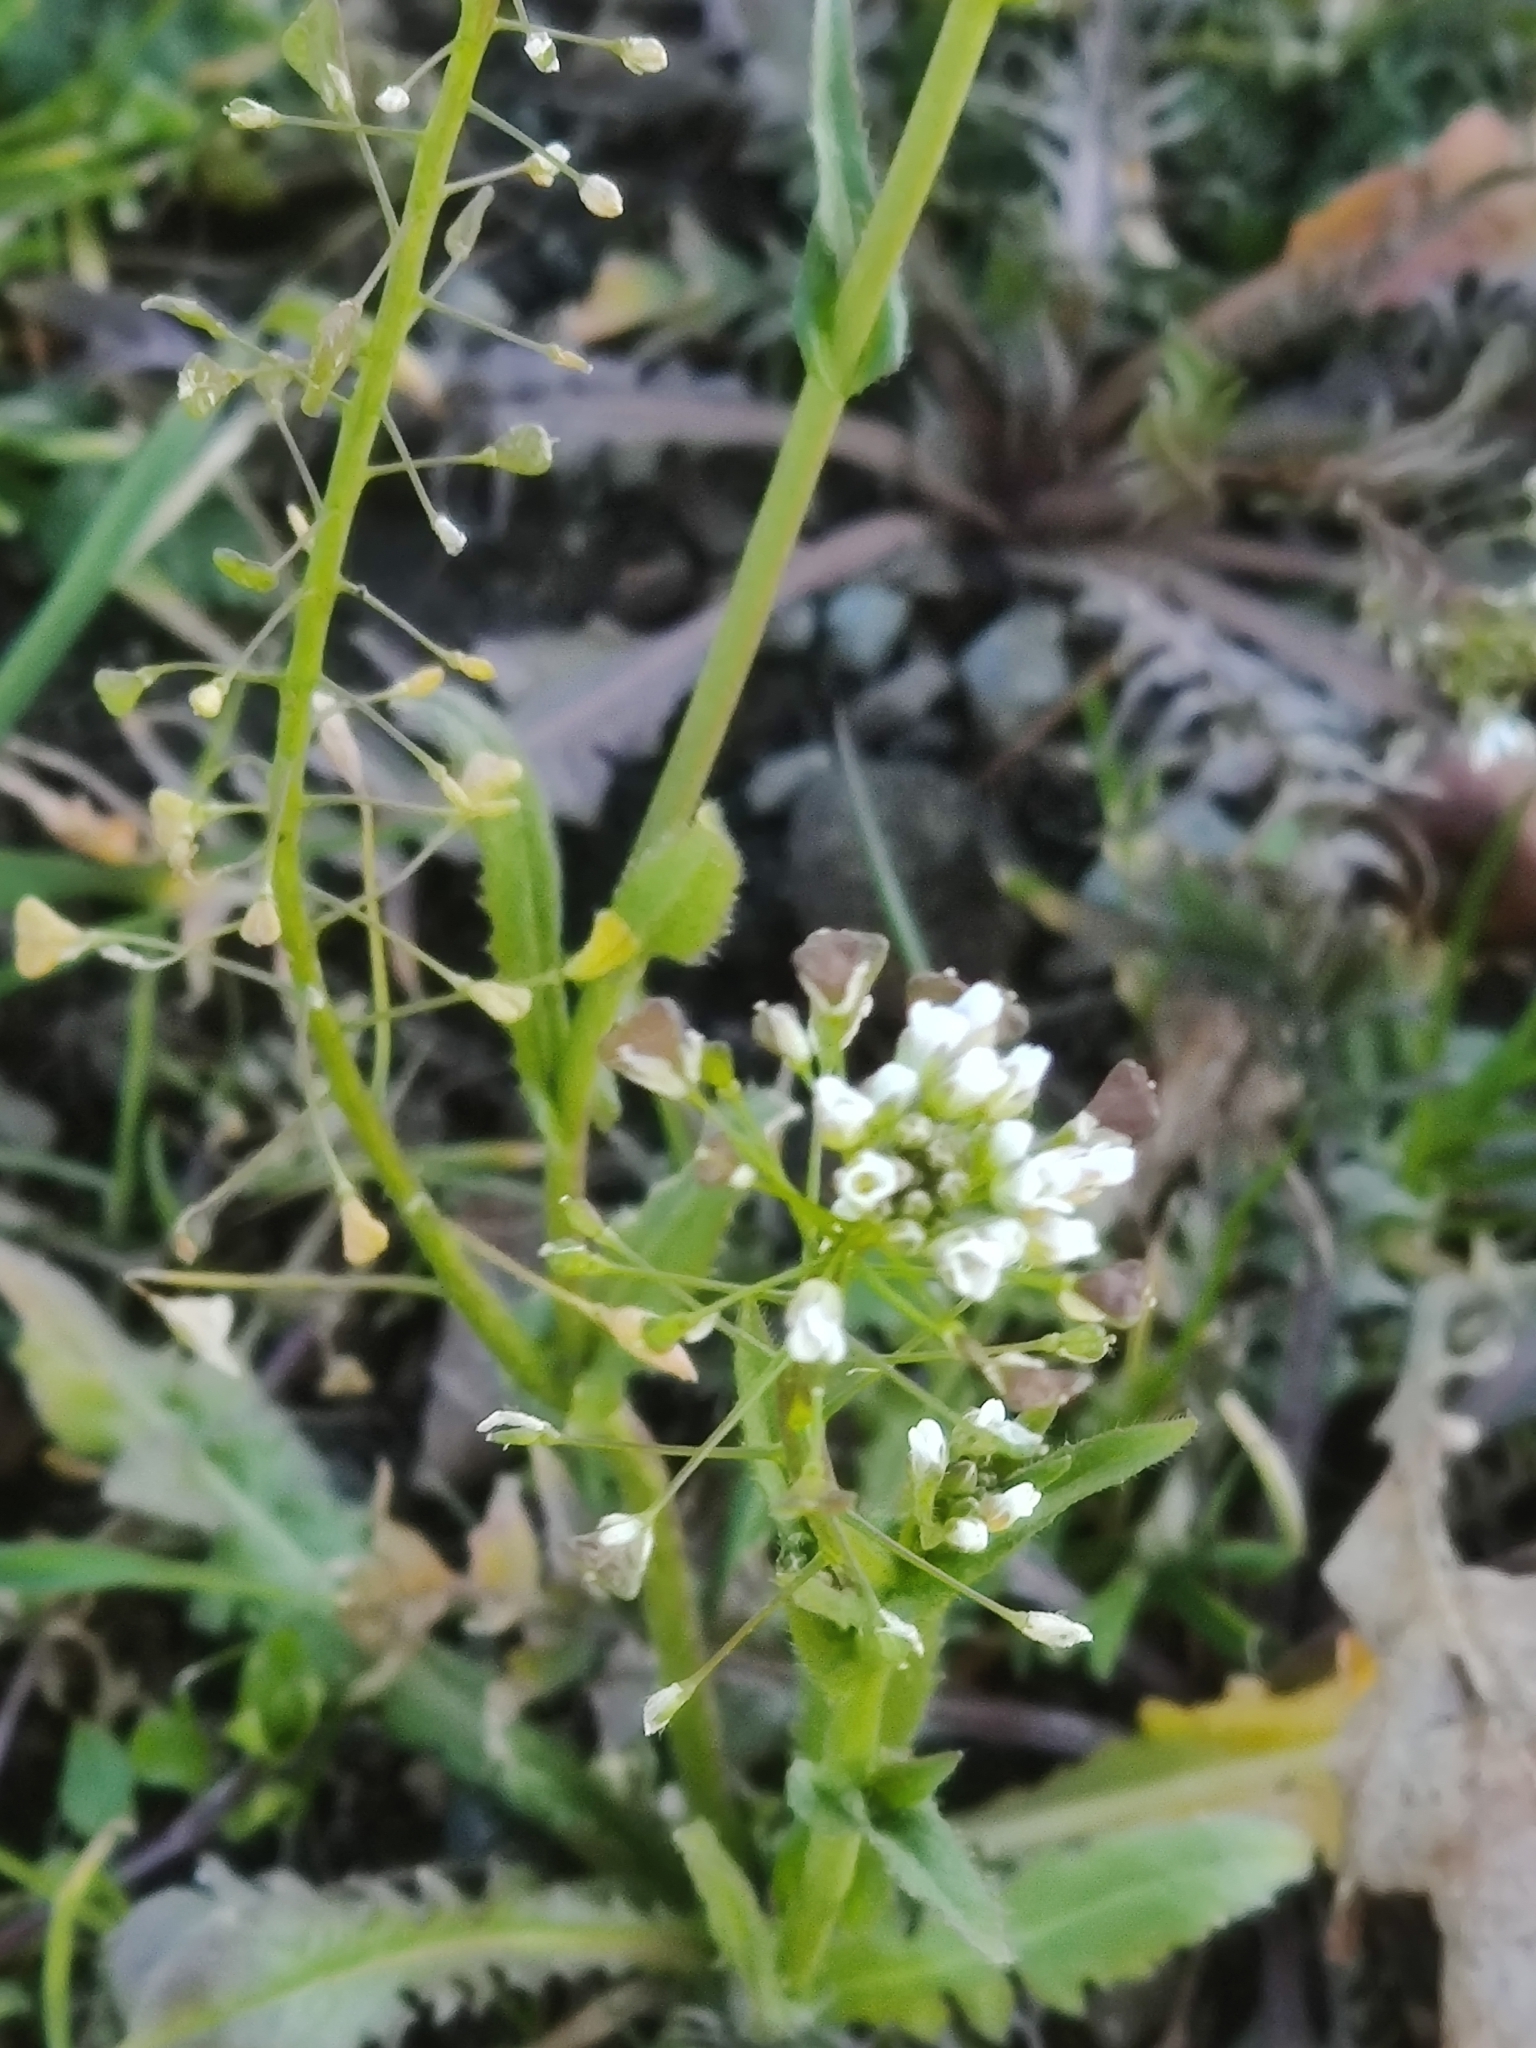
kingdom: Plantae
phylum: Tracheophyta
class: Magnoliopsida
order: Brassicales
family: Brassicaceae
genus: Capsella
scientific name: Capsella bursa-pastoris
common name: Shepherd's purse
